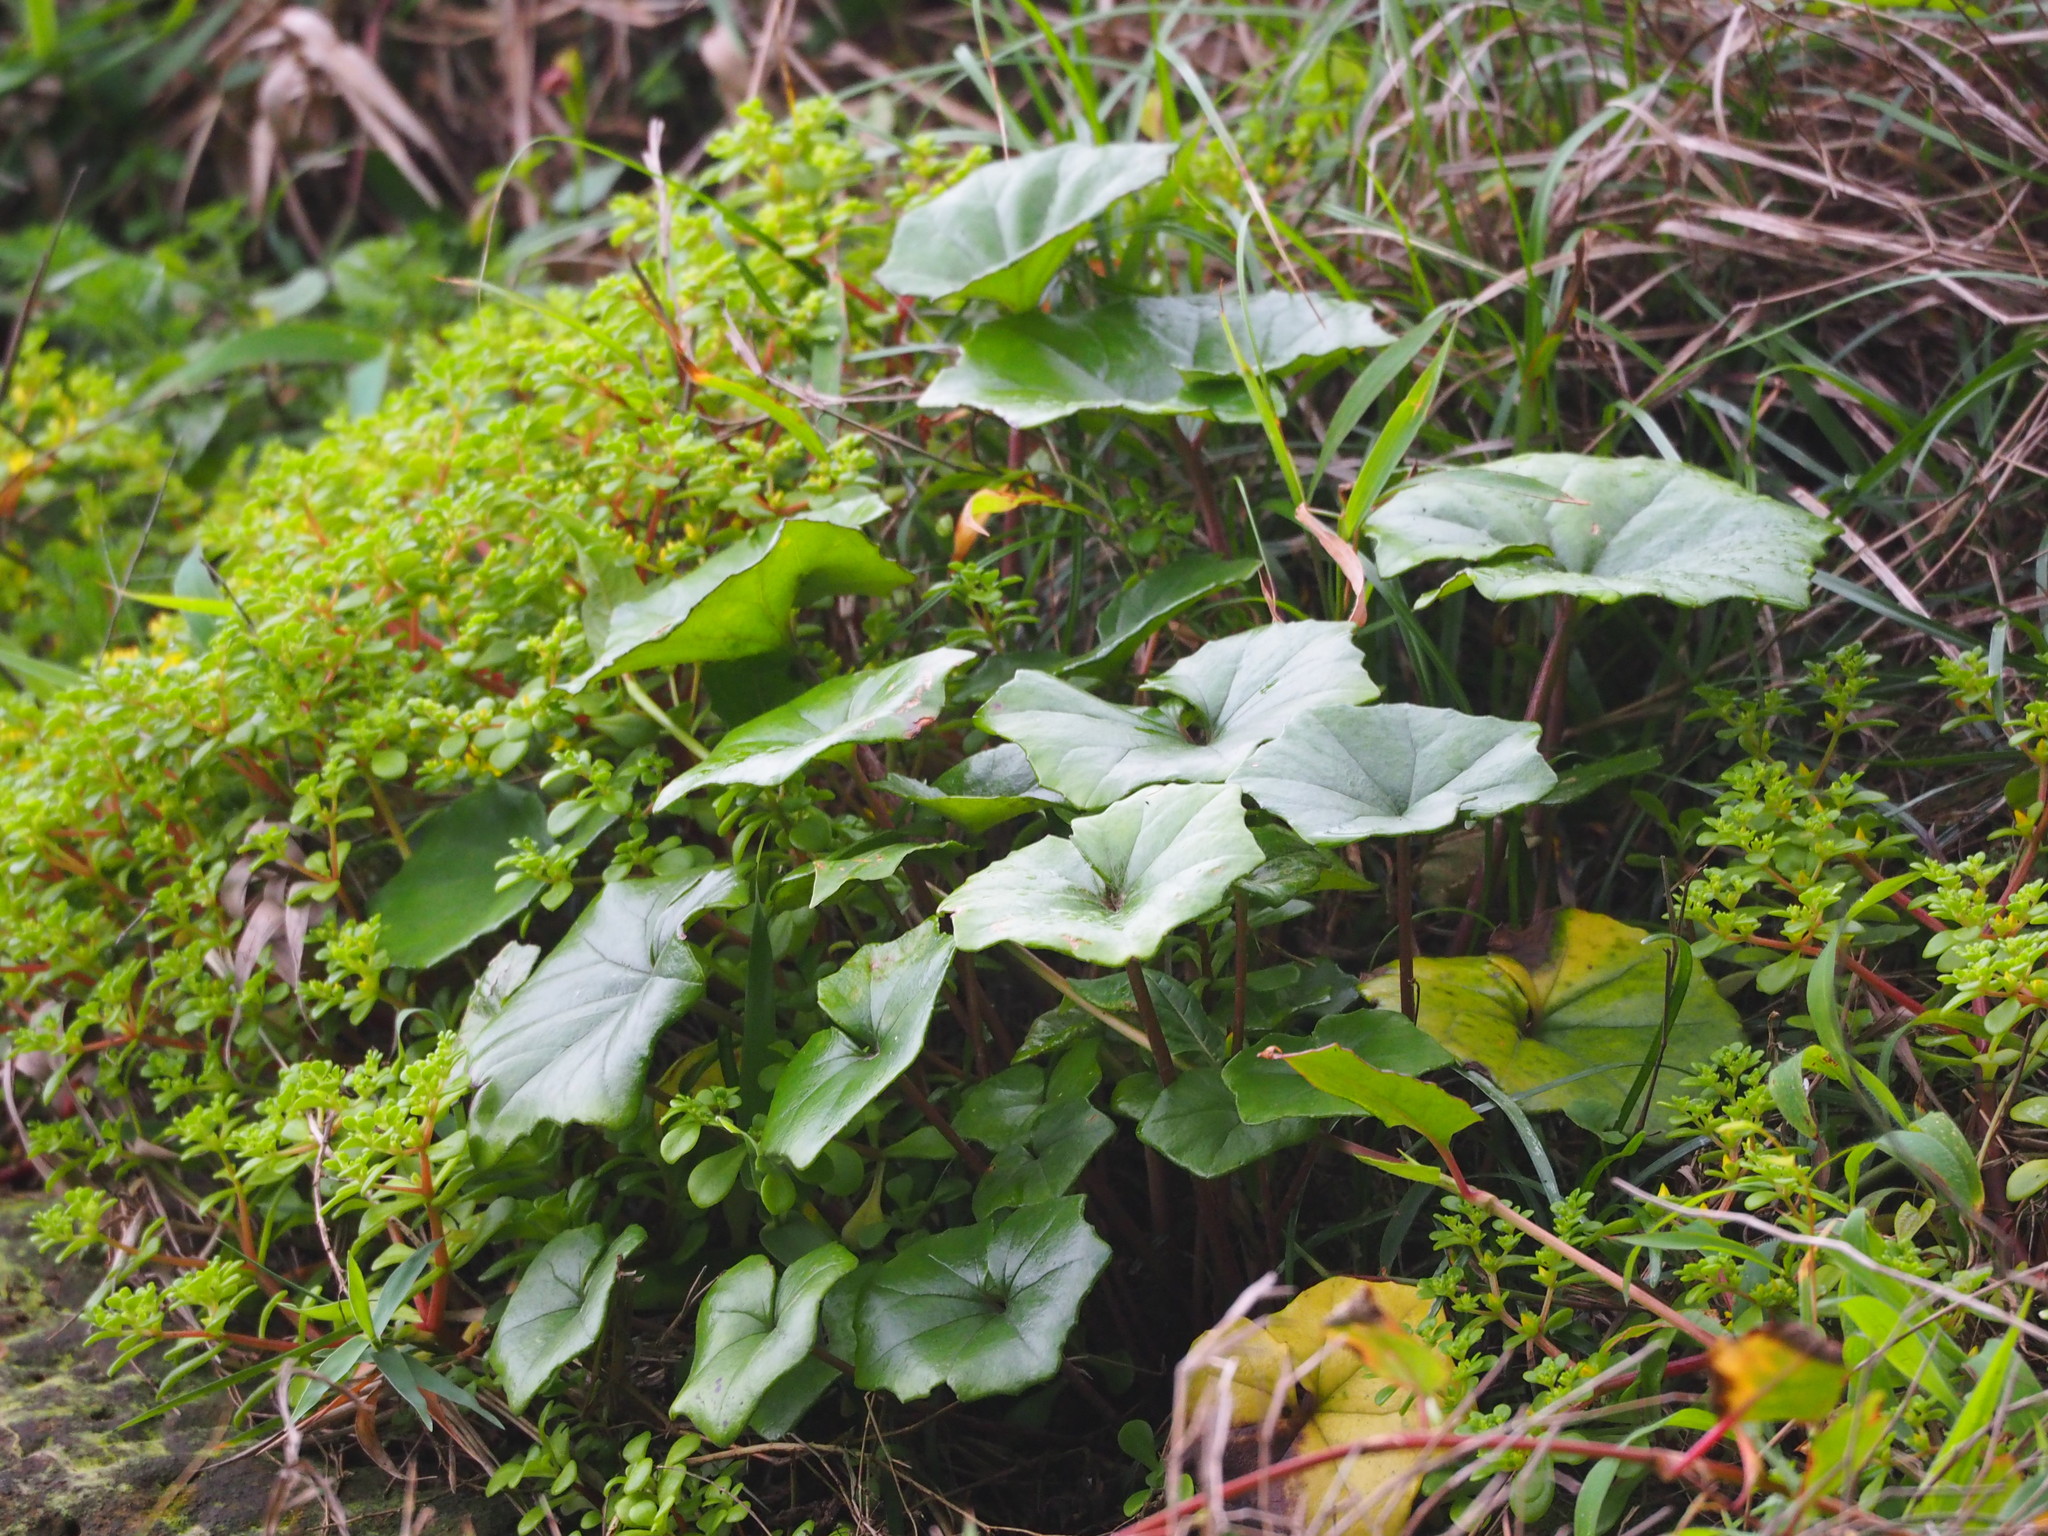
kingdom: Plantae
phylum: Tracheophyta
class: Magnoliopsida
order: Asterales
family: Asteraceae
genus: Farfugium
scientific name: Farfugium japonicum
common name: Leopardplant
